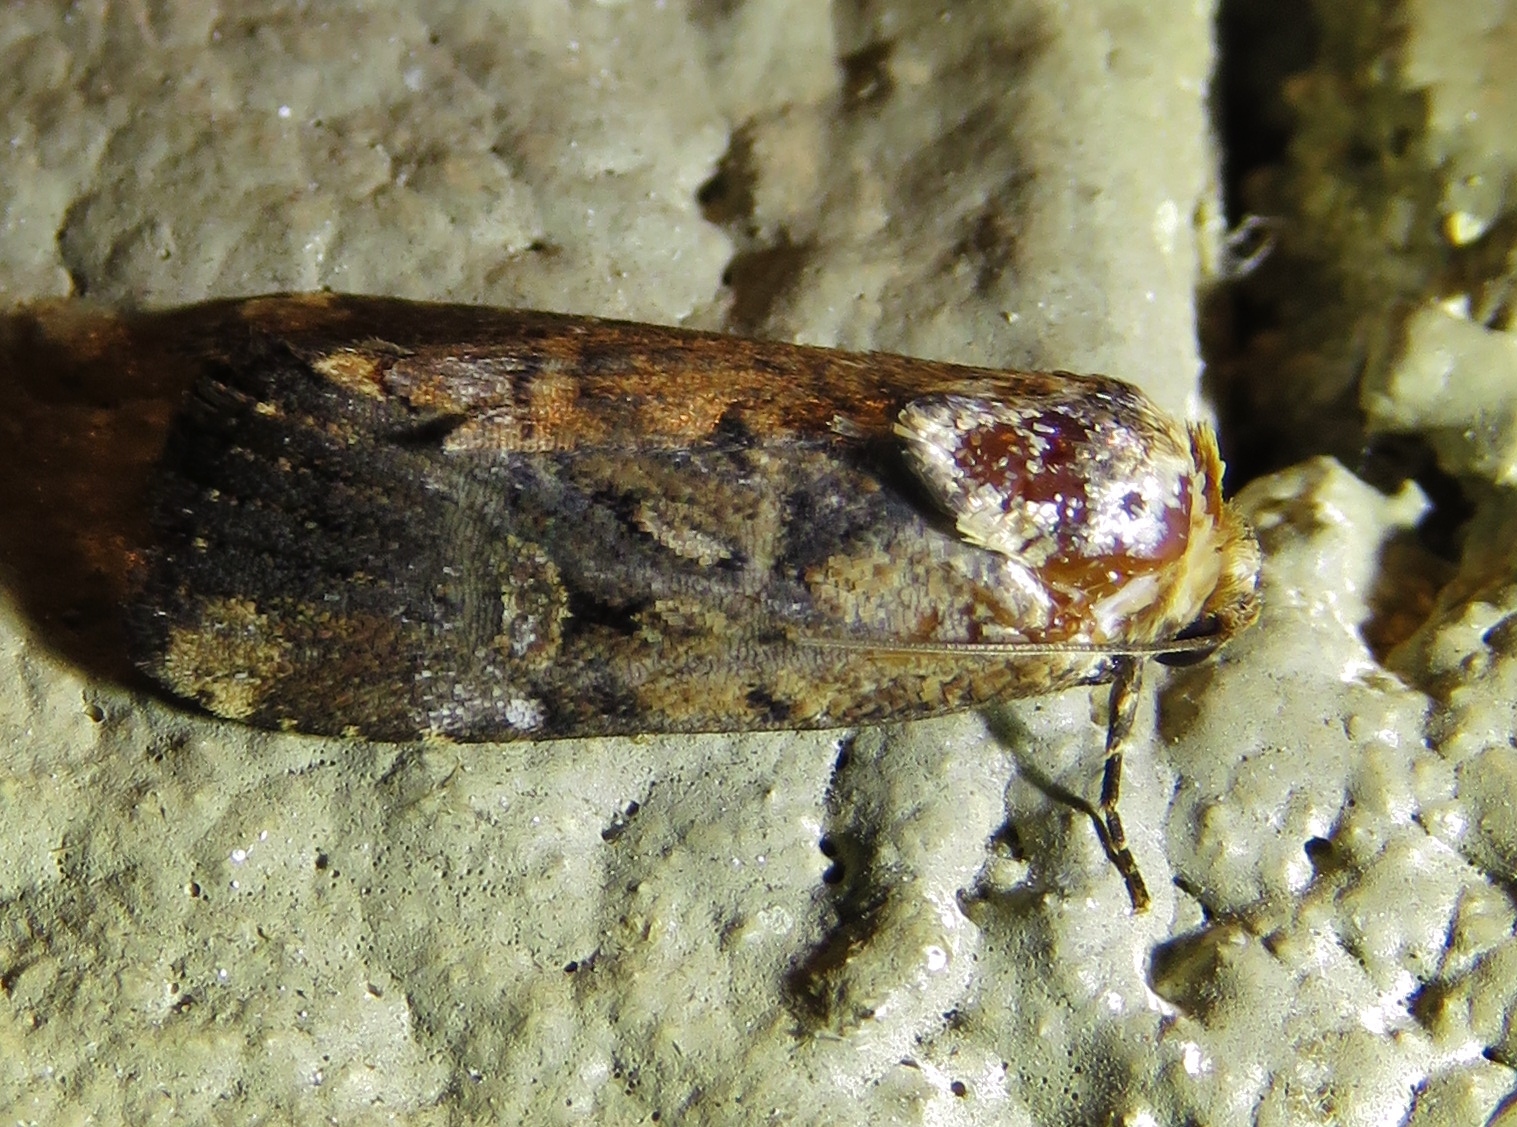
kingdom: Animalia
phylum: Arthropoda
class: Insecta
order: Lepidoptera
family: Noctuidae
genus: Elaphria
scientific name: Elaphria chalcedonia
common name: Chalcedony midget
